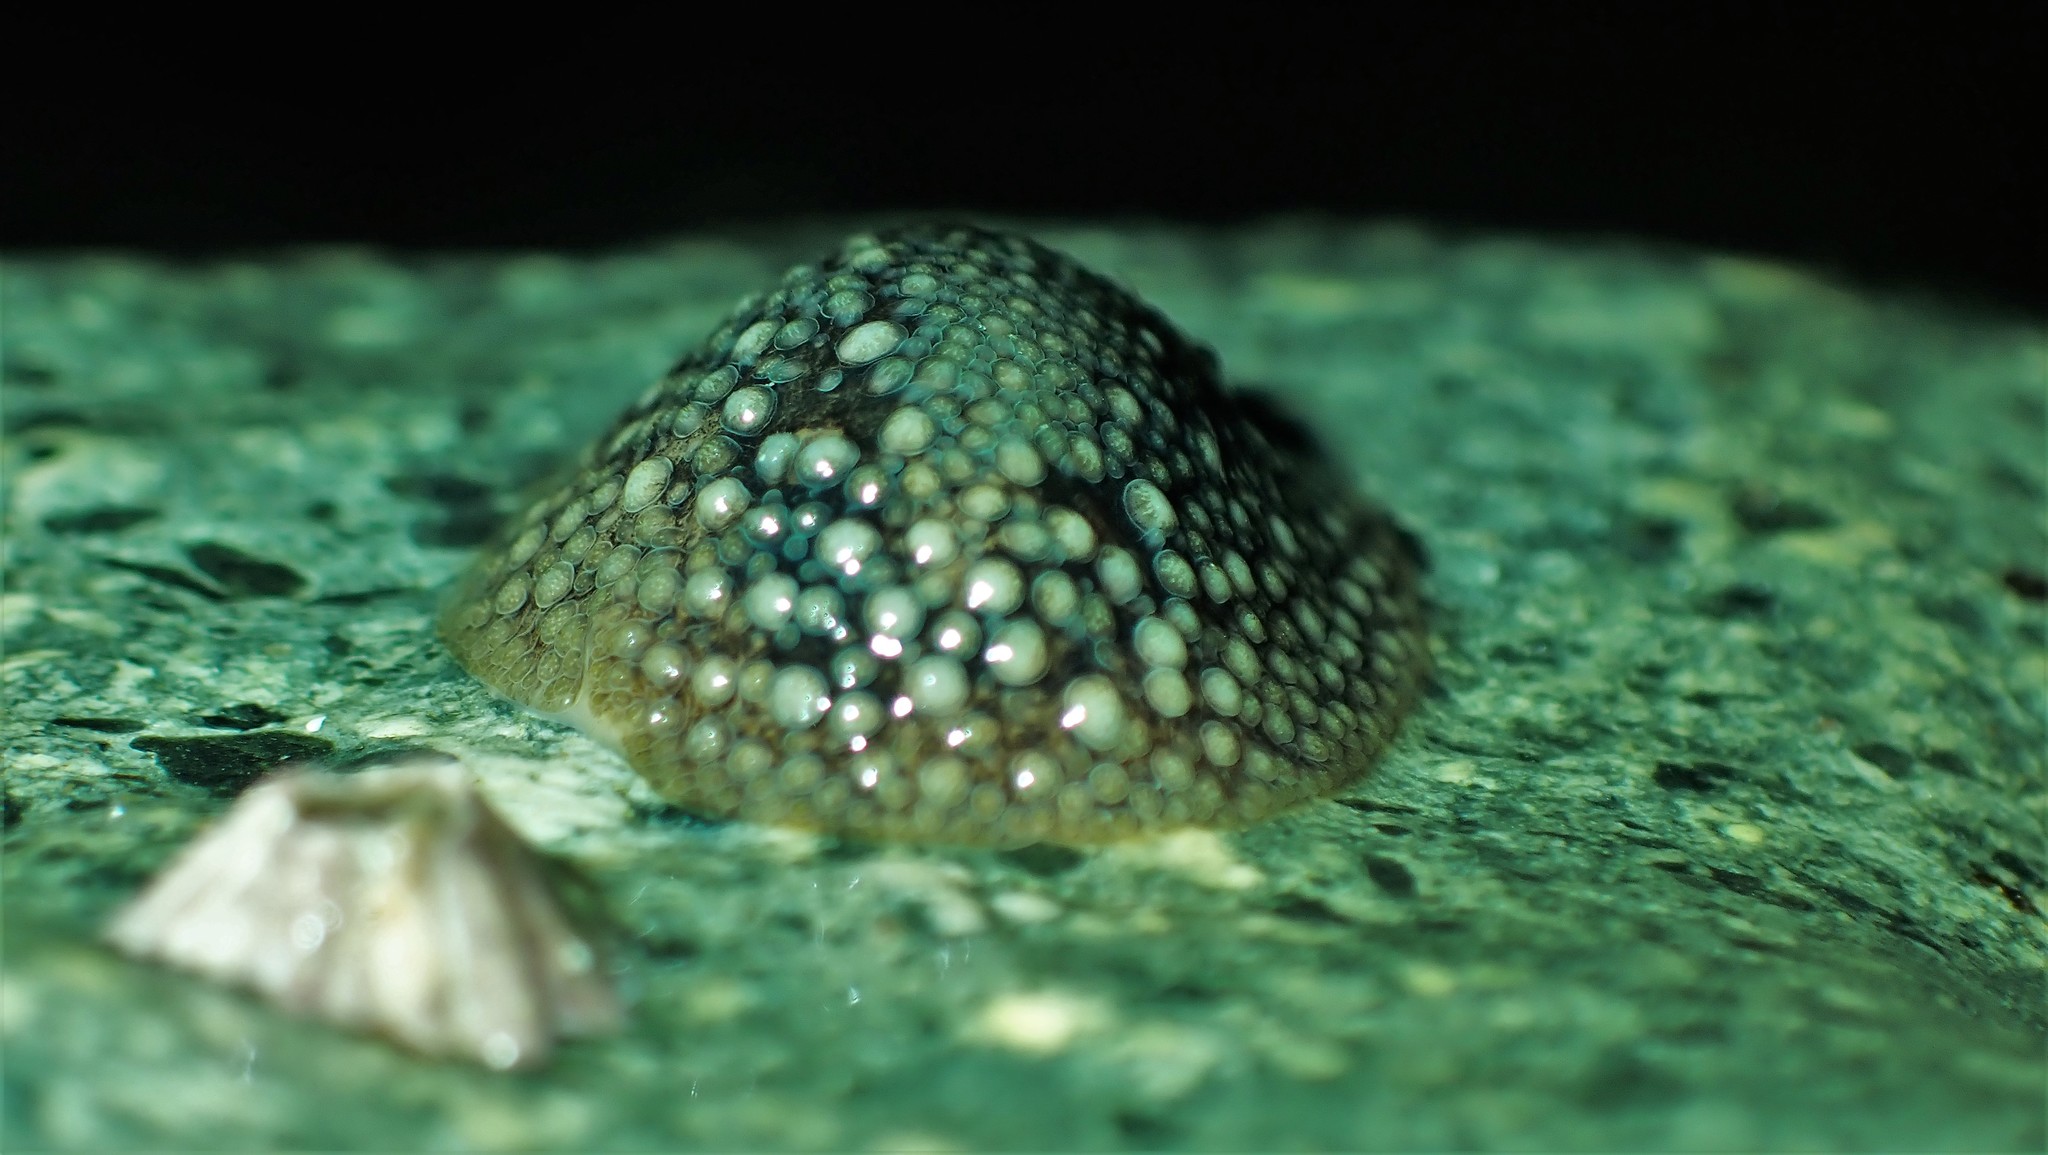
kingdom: Animalia
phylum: Mollusca
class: Gastropoda
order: Nudibranchia
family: Onchidorididae
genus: Onchidoris
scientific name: Onchidoris bilamellata
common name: Barnacle-eating onchidoris
